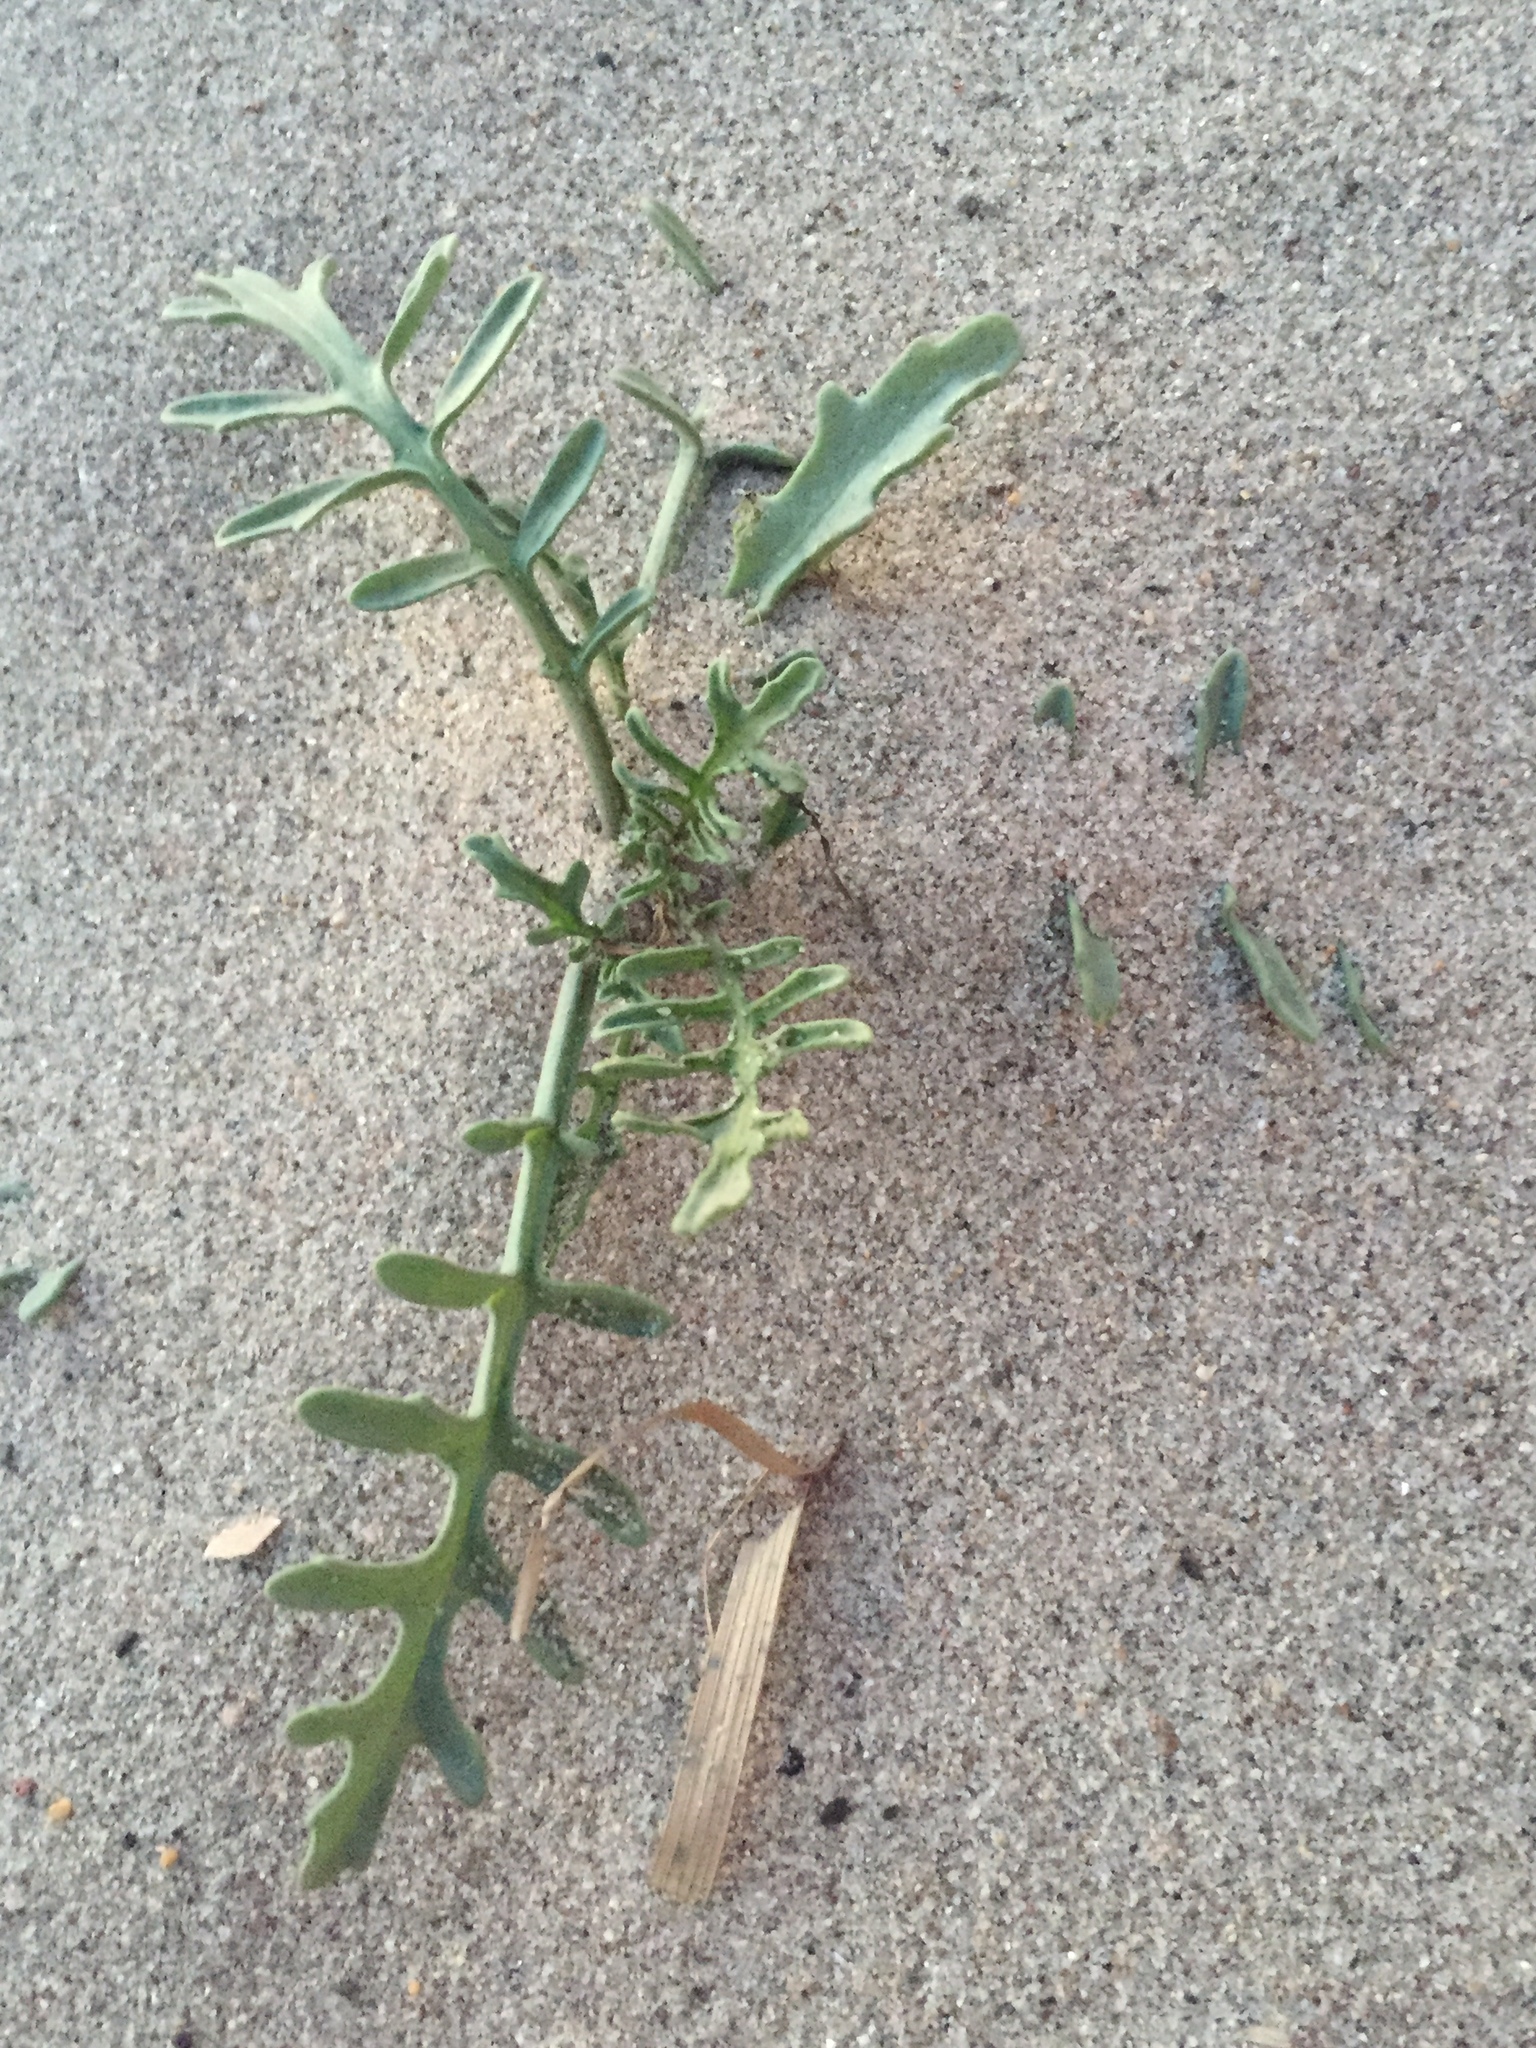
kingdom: Plantae
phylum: Tracheophyta
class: Magnoliopsida
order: Brassicales
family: Brassicaceae
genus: Cakile
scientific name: Cakile maritima
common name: Sea rocket
